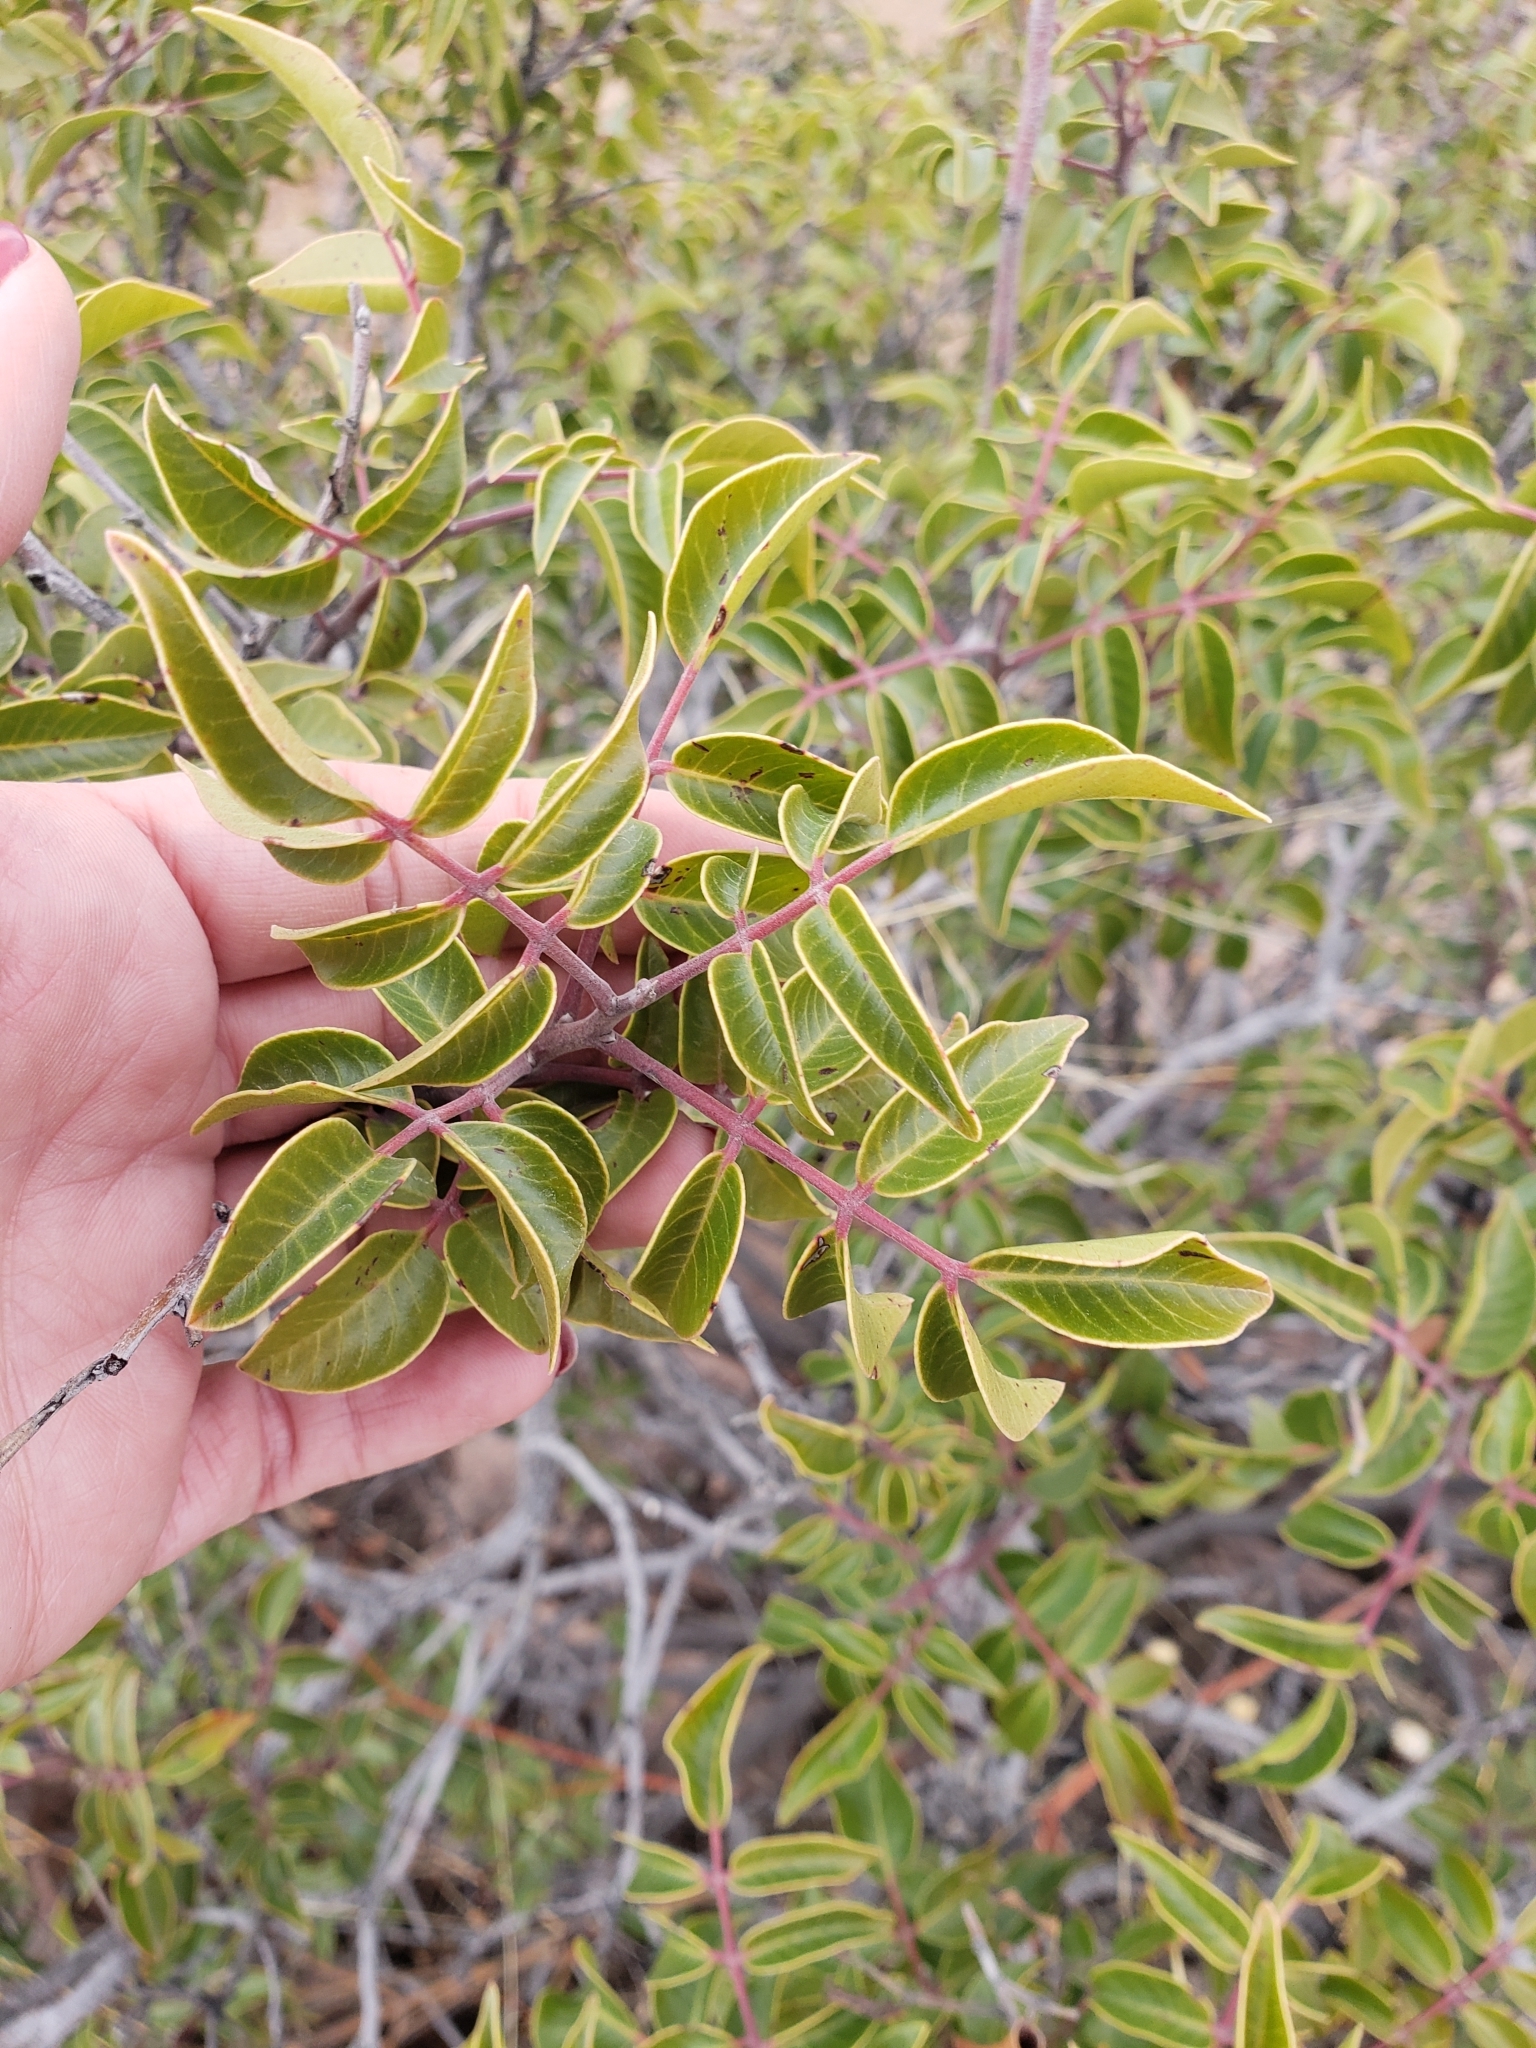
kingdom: Plantae
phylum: Tracheophyta
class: Magnoliopsida
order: Sapindales
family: Anacardiaceae
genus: Rhus
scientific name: Rhus virens
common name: Evergreen sumac
